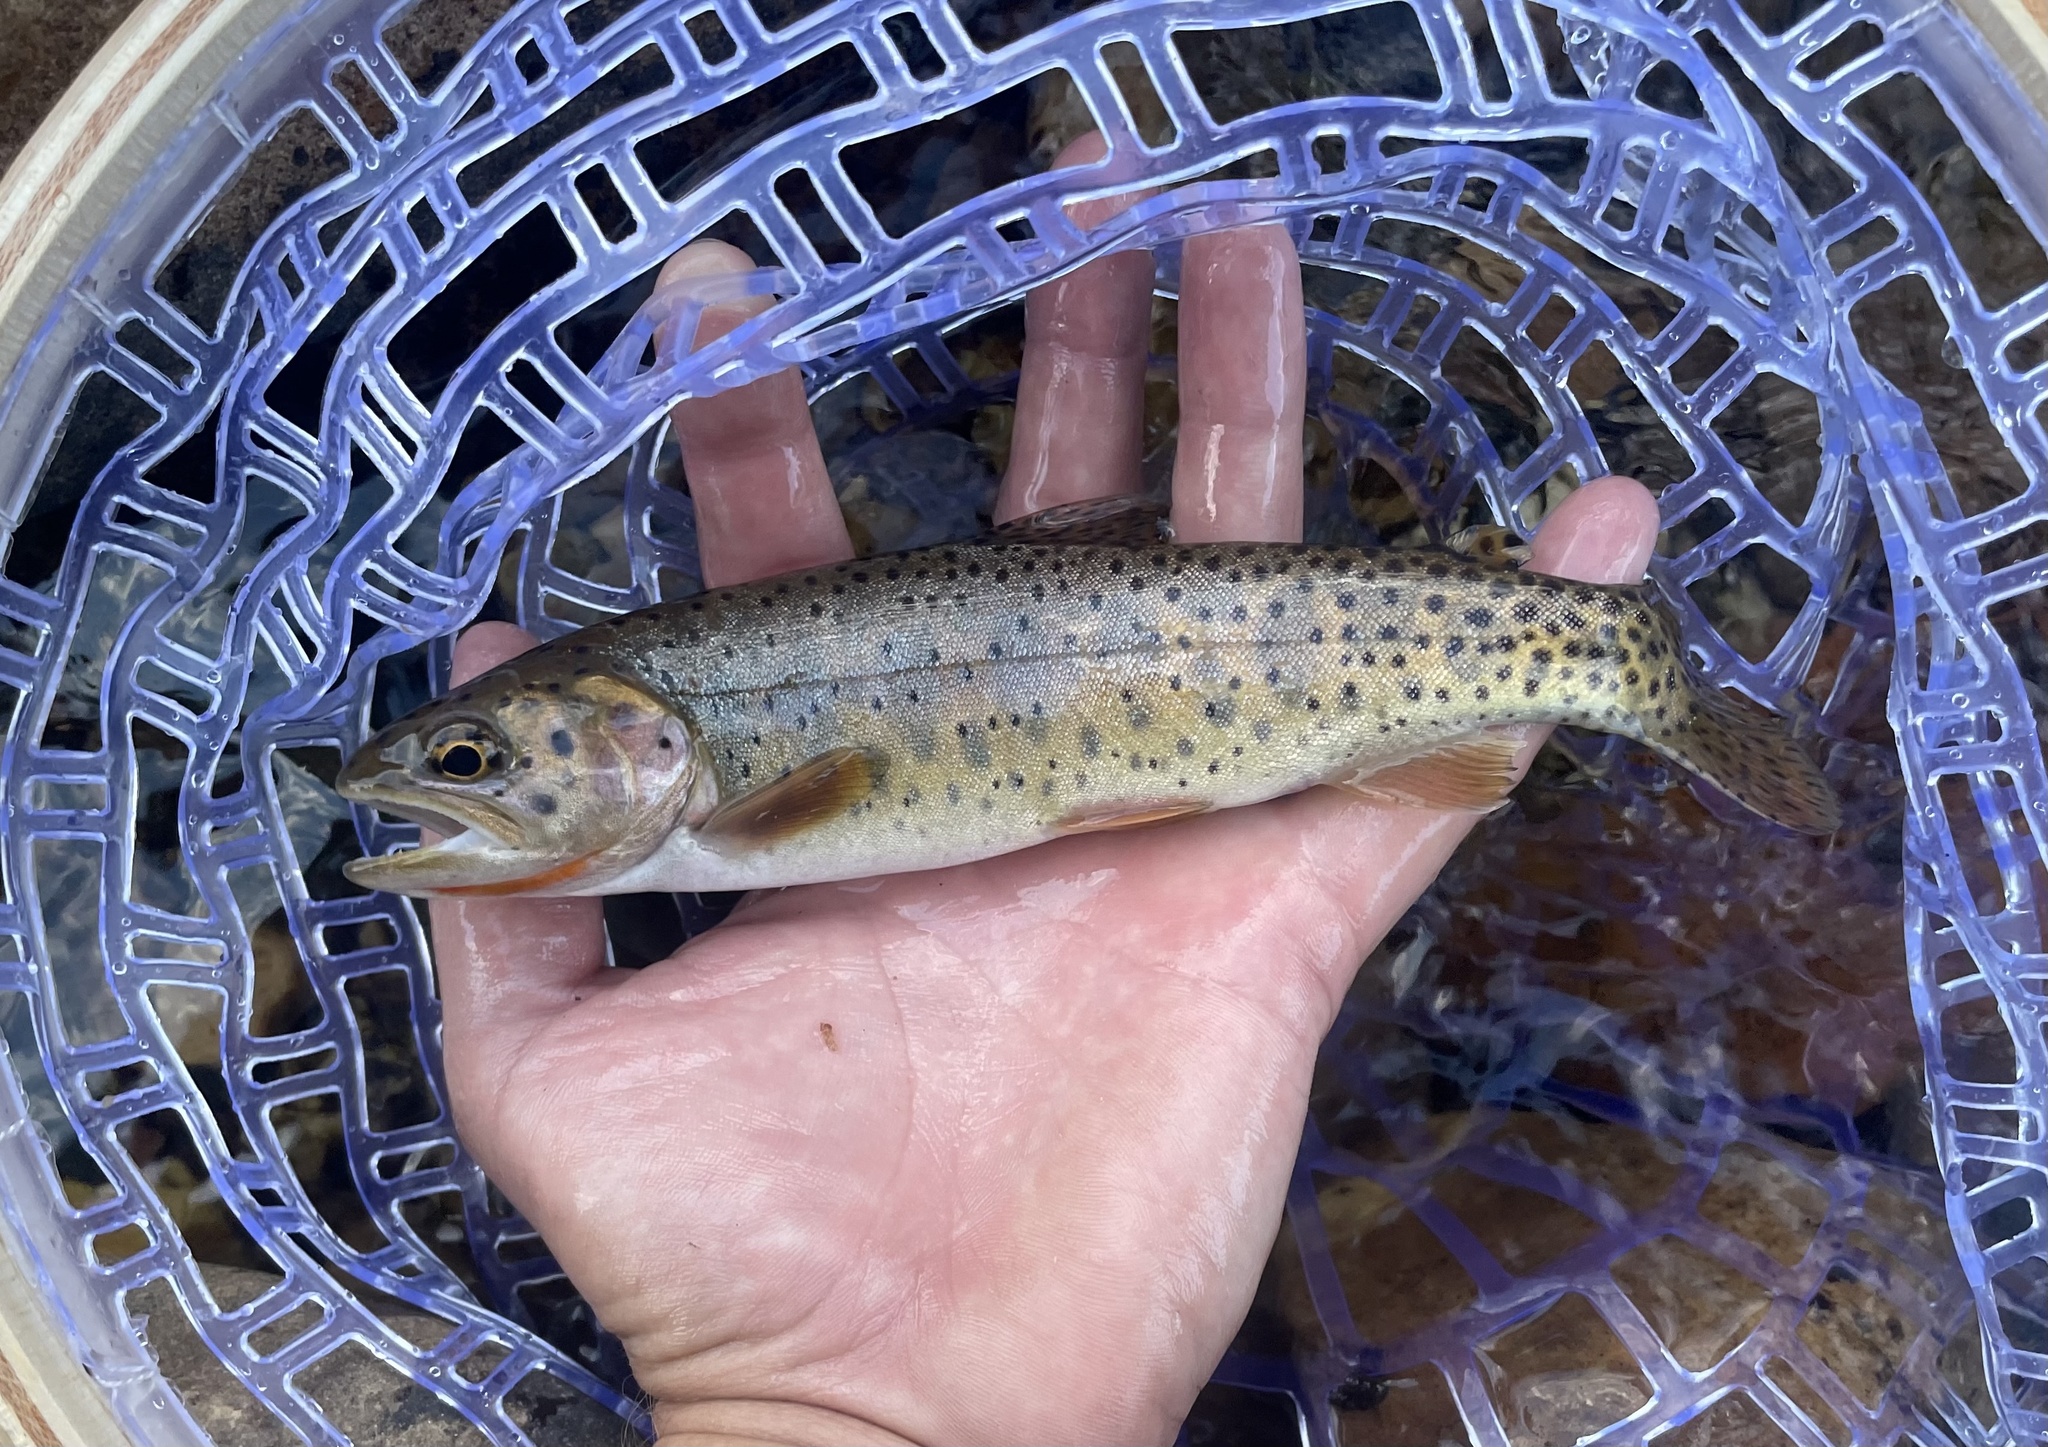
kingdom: Animalia
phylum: Chordata
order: Salmoniformes
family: Salmonidae
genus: Oncorhynchus
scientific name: Oncorhynchus virginalis
